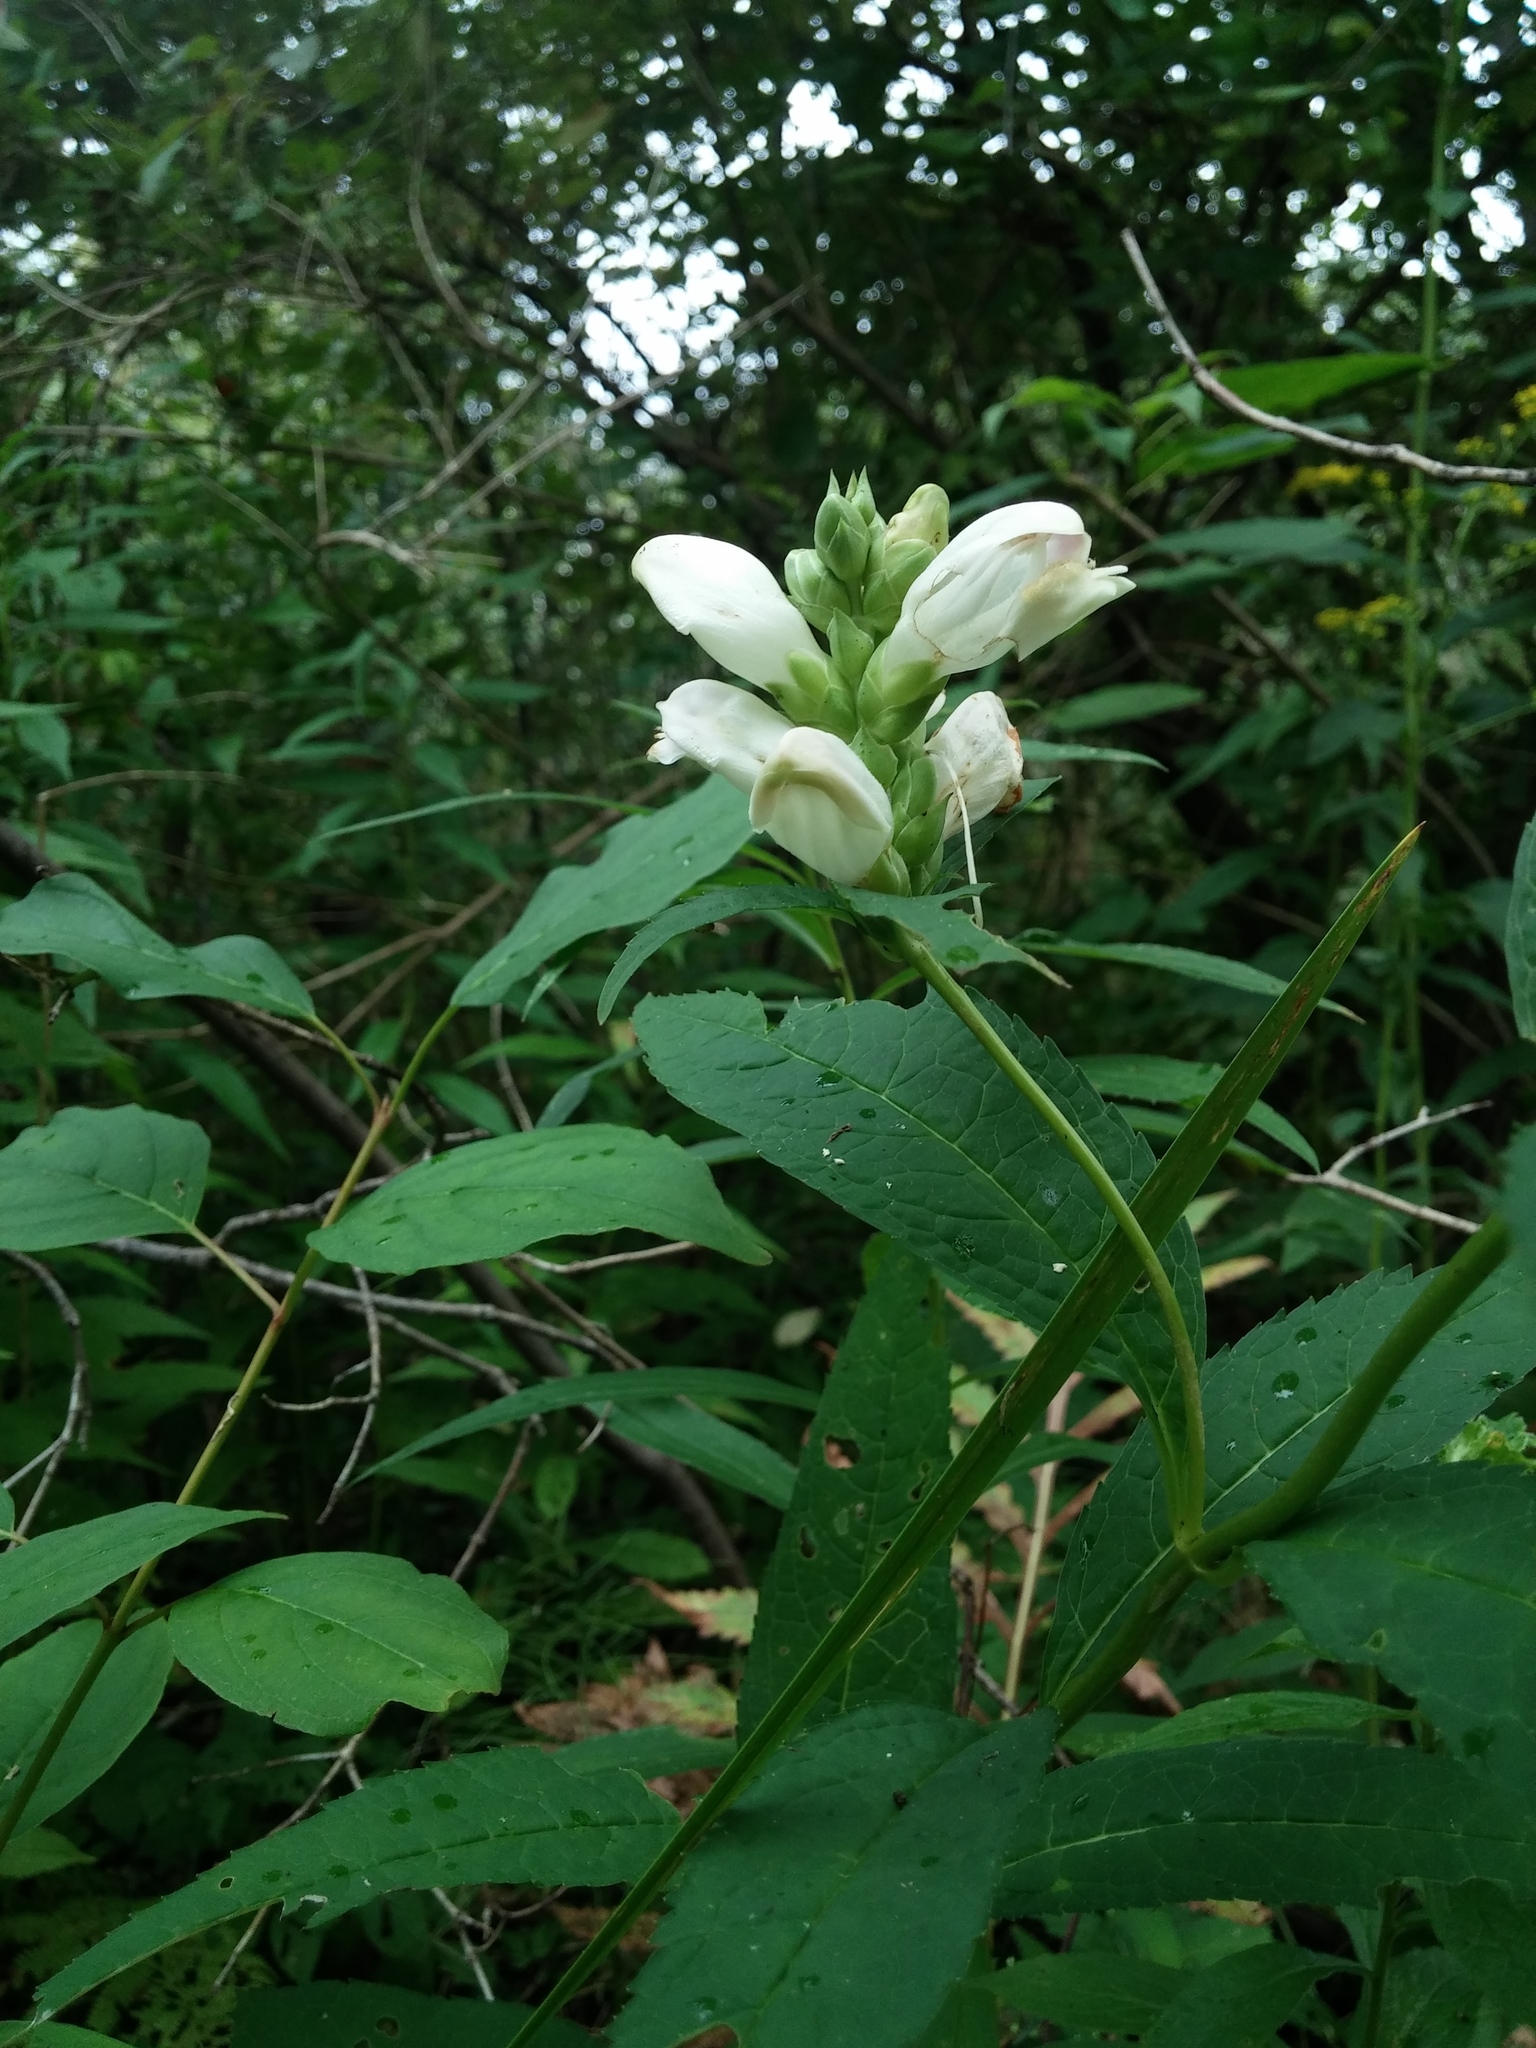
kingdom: Plantae
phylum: Tracheophyta
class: Magnoliopsida
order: Lamiales
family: Plantaginaceae
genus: Chelone
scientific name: Chelone glabra
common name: Snakehead
